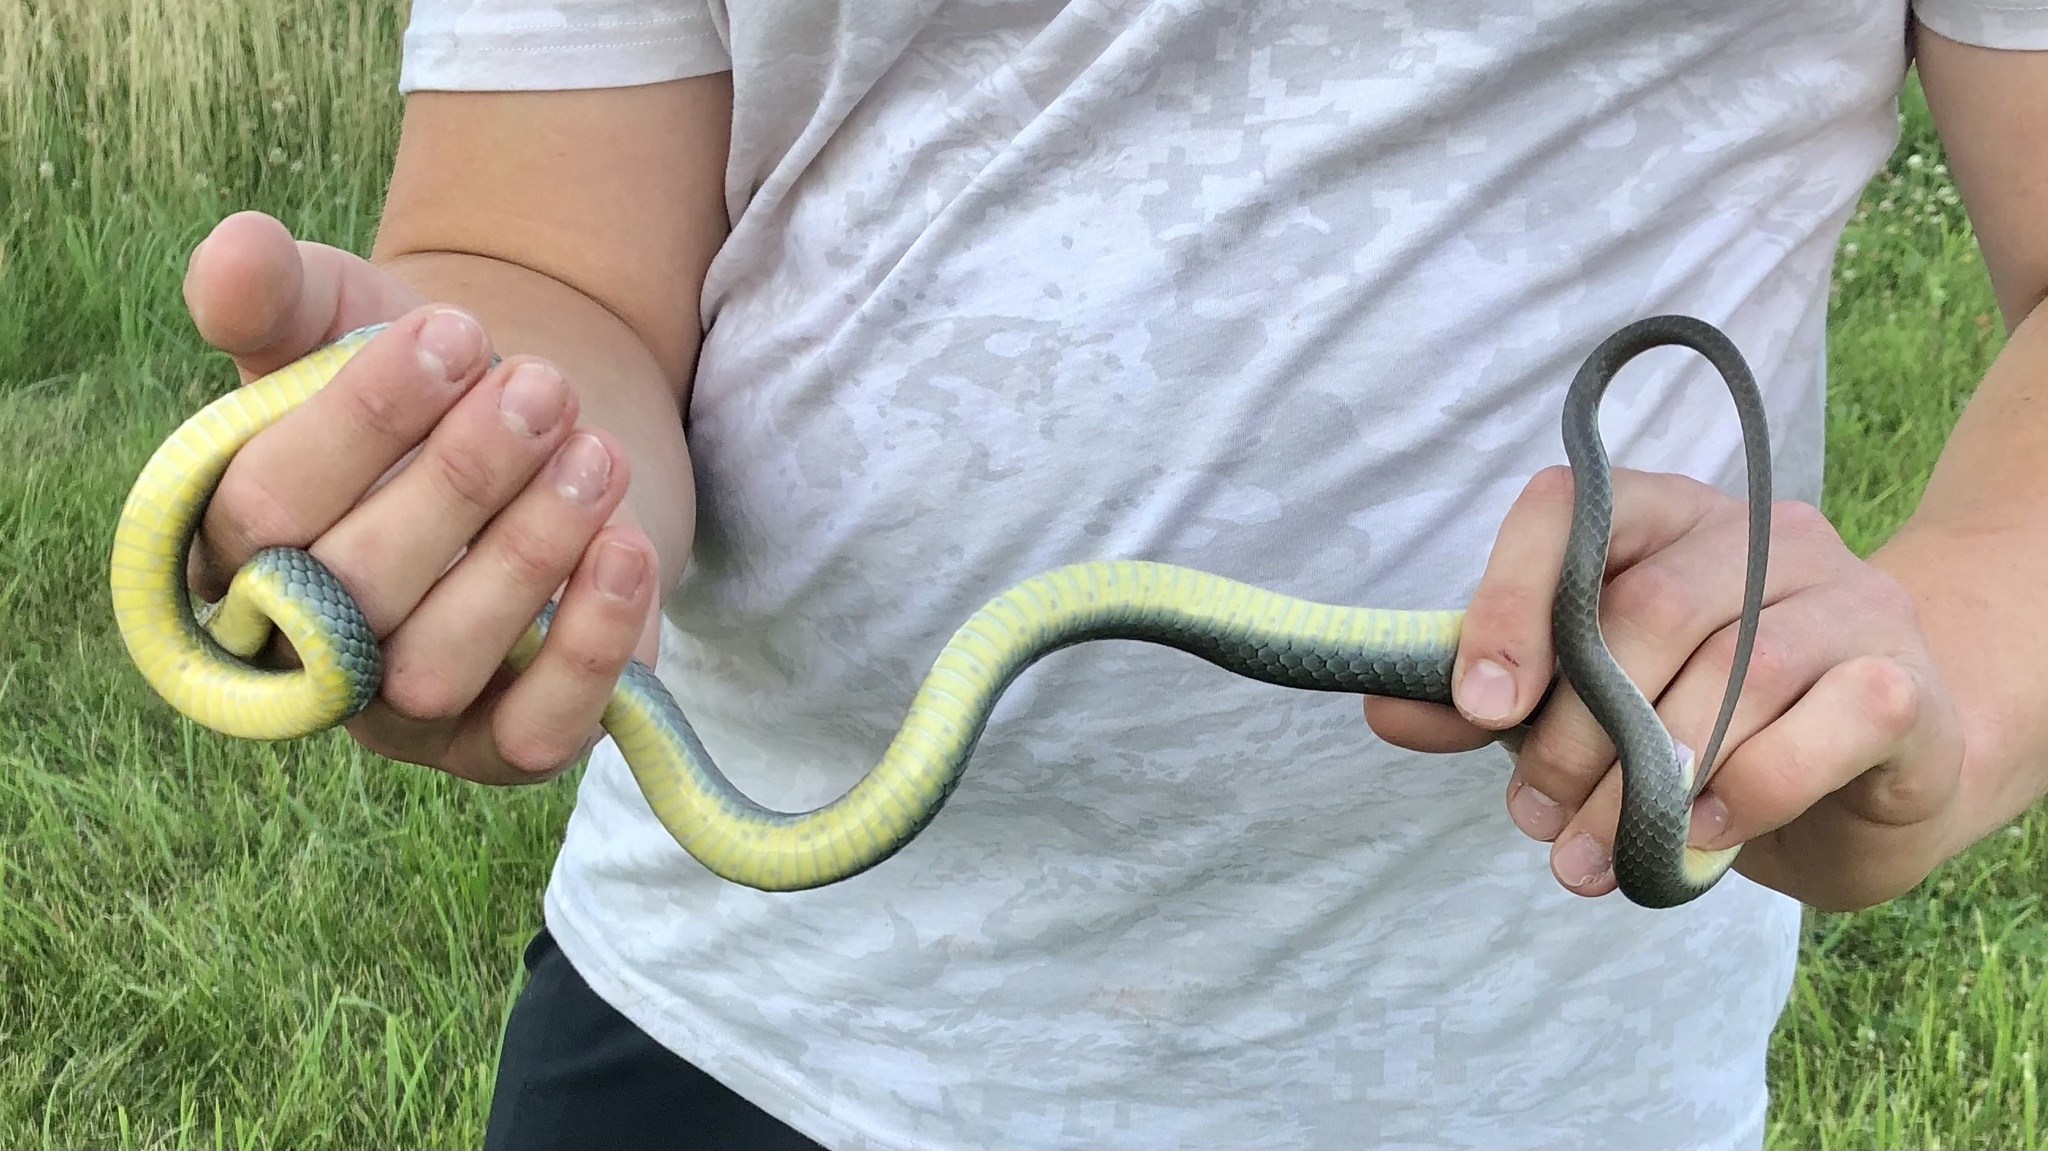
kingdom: Animalia
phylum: Chordata
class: Squamata
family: Colubridae
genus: Coluber
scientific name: Coluber constrictor
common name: Eastern racer
